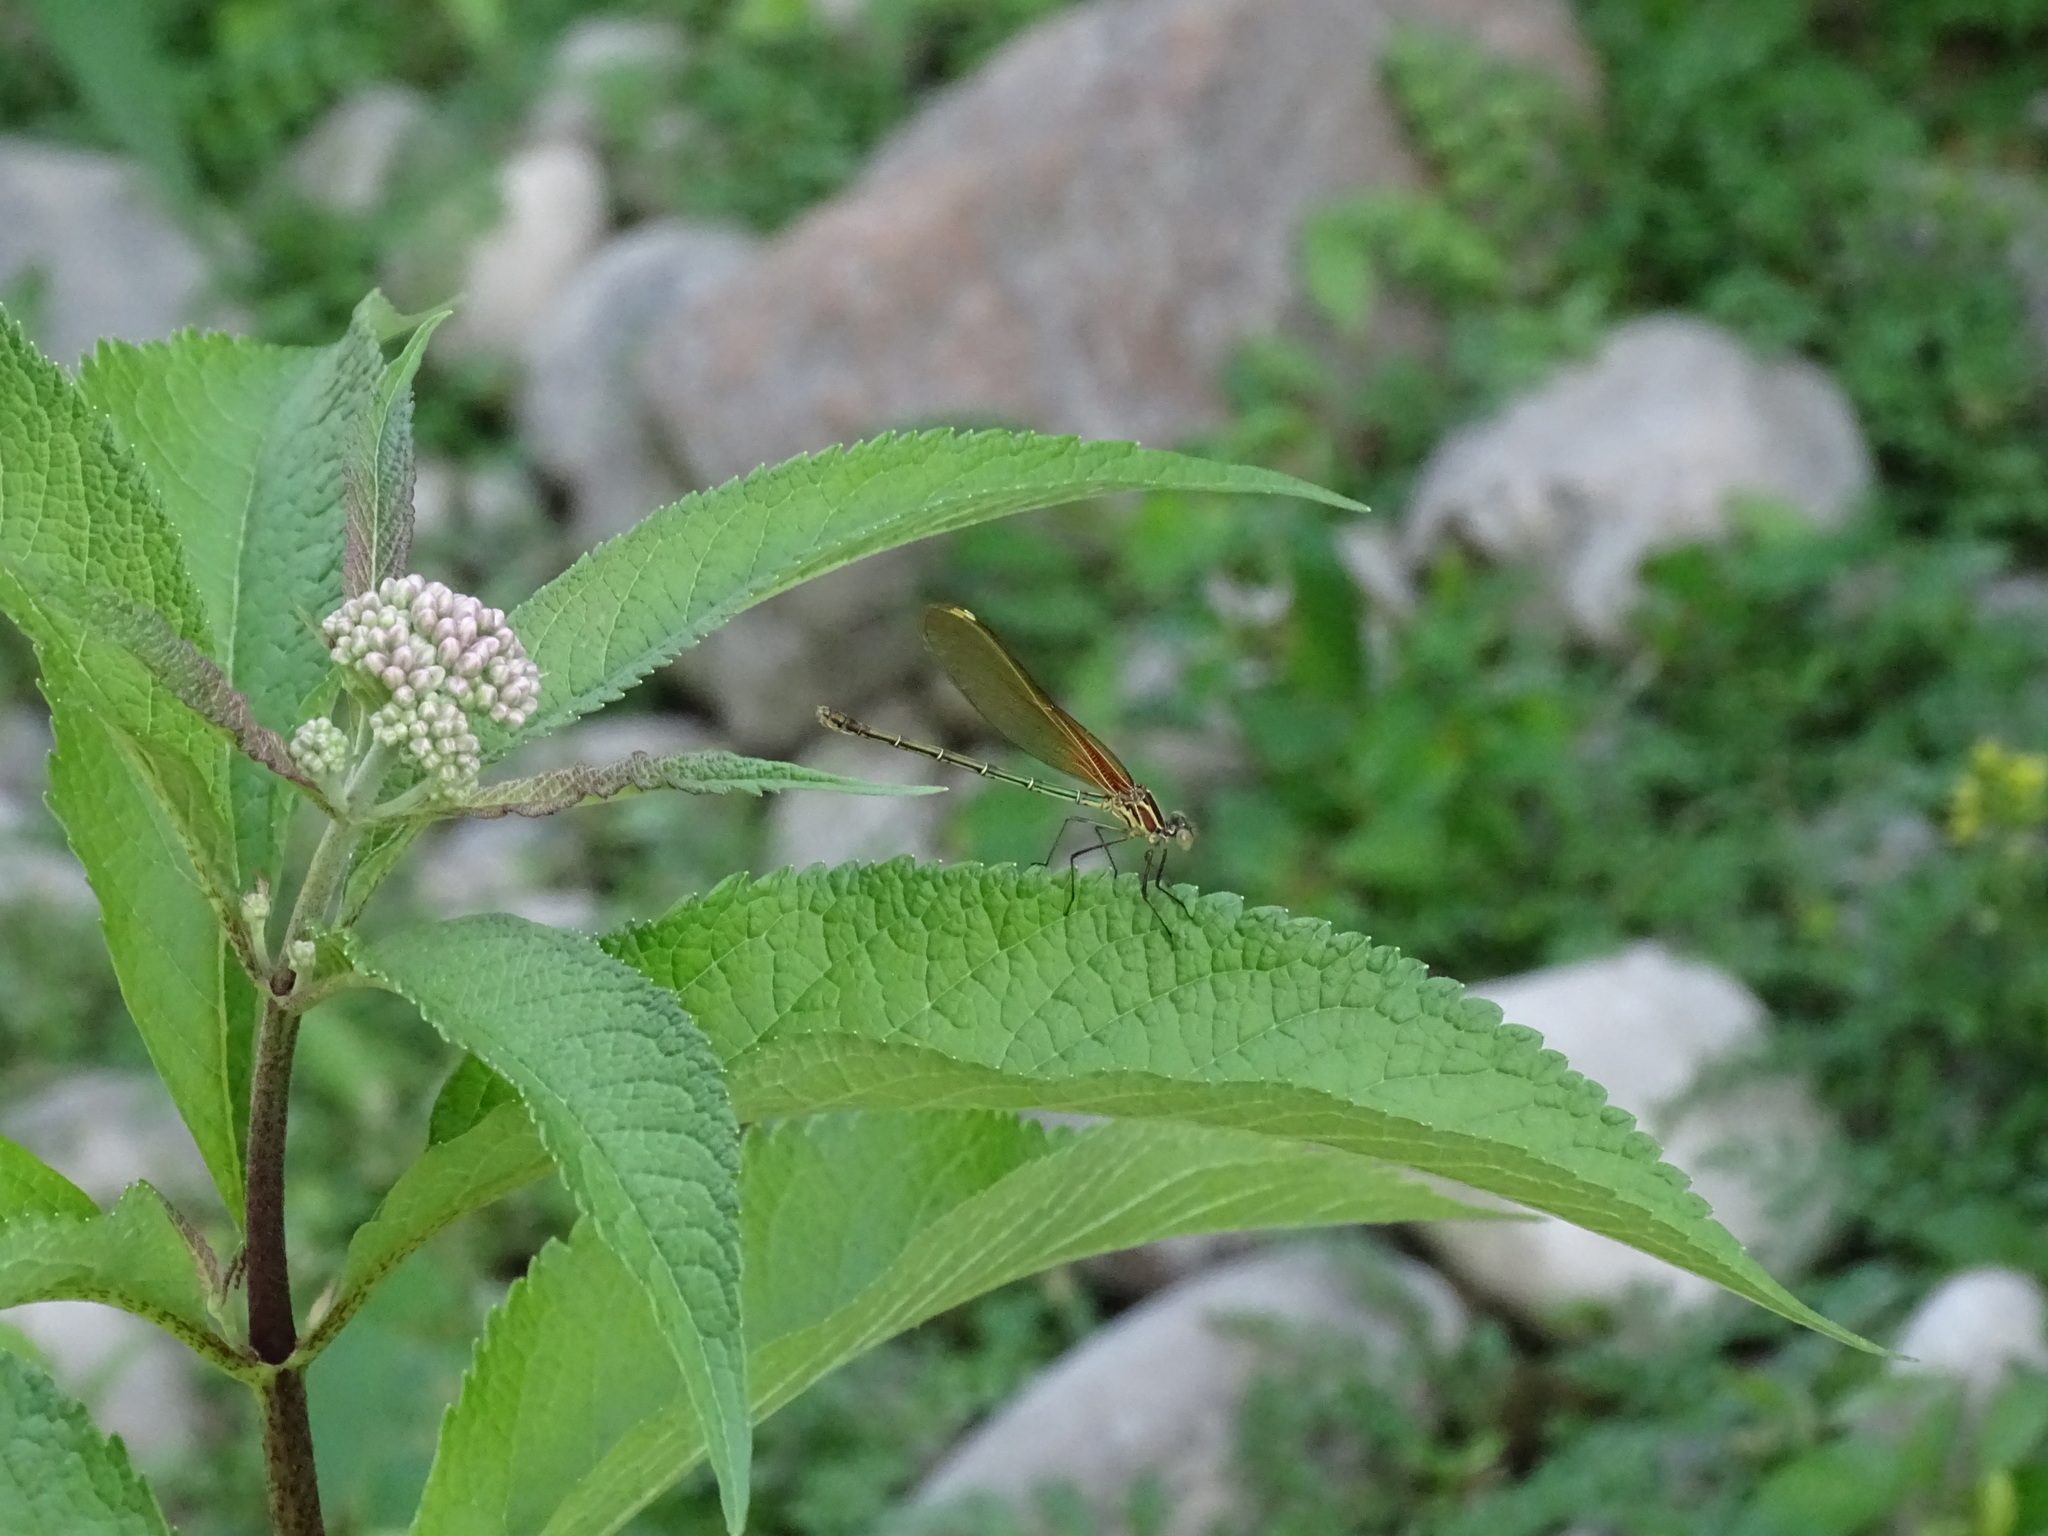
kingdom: Animalia
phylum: Arthropoda
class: Insecta
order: Odonata
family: Calopterygidae
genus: Hetaerina
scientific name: Hetaerina americana
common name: American rubyspot
